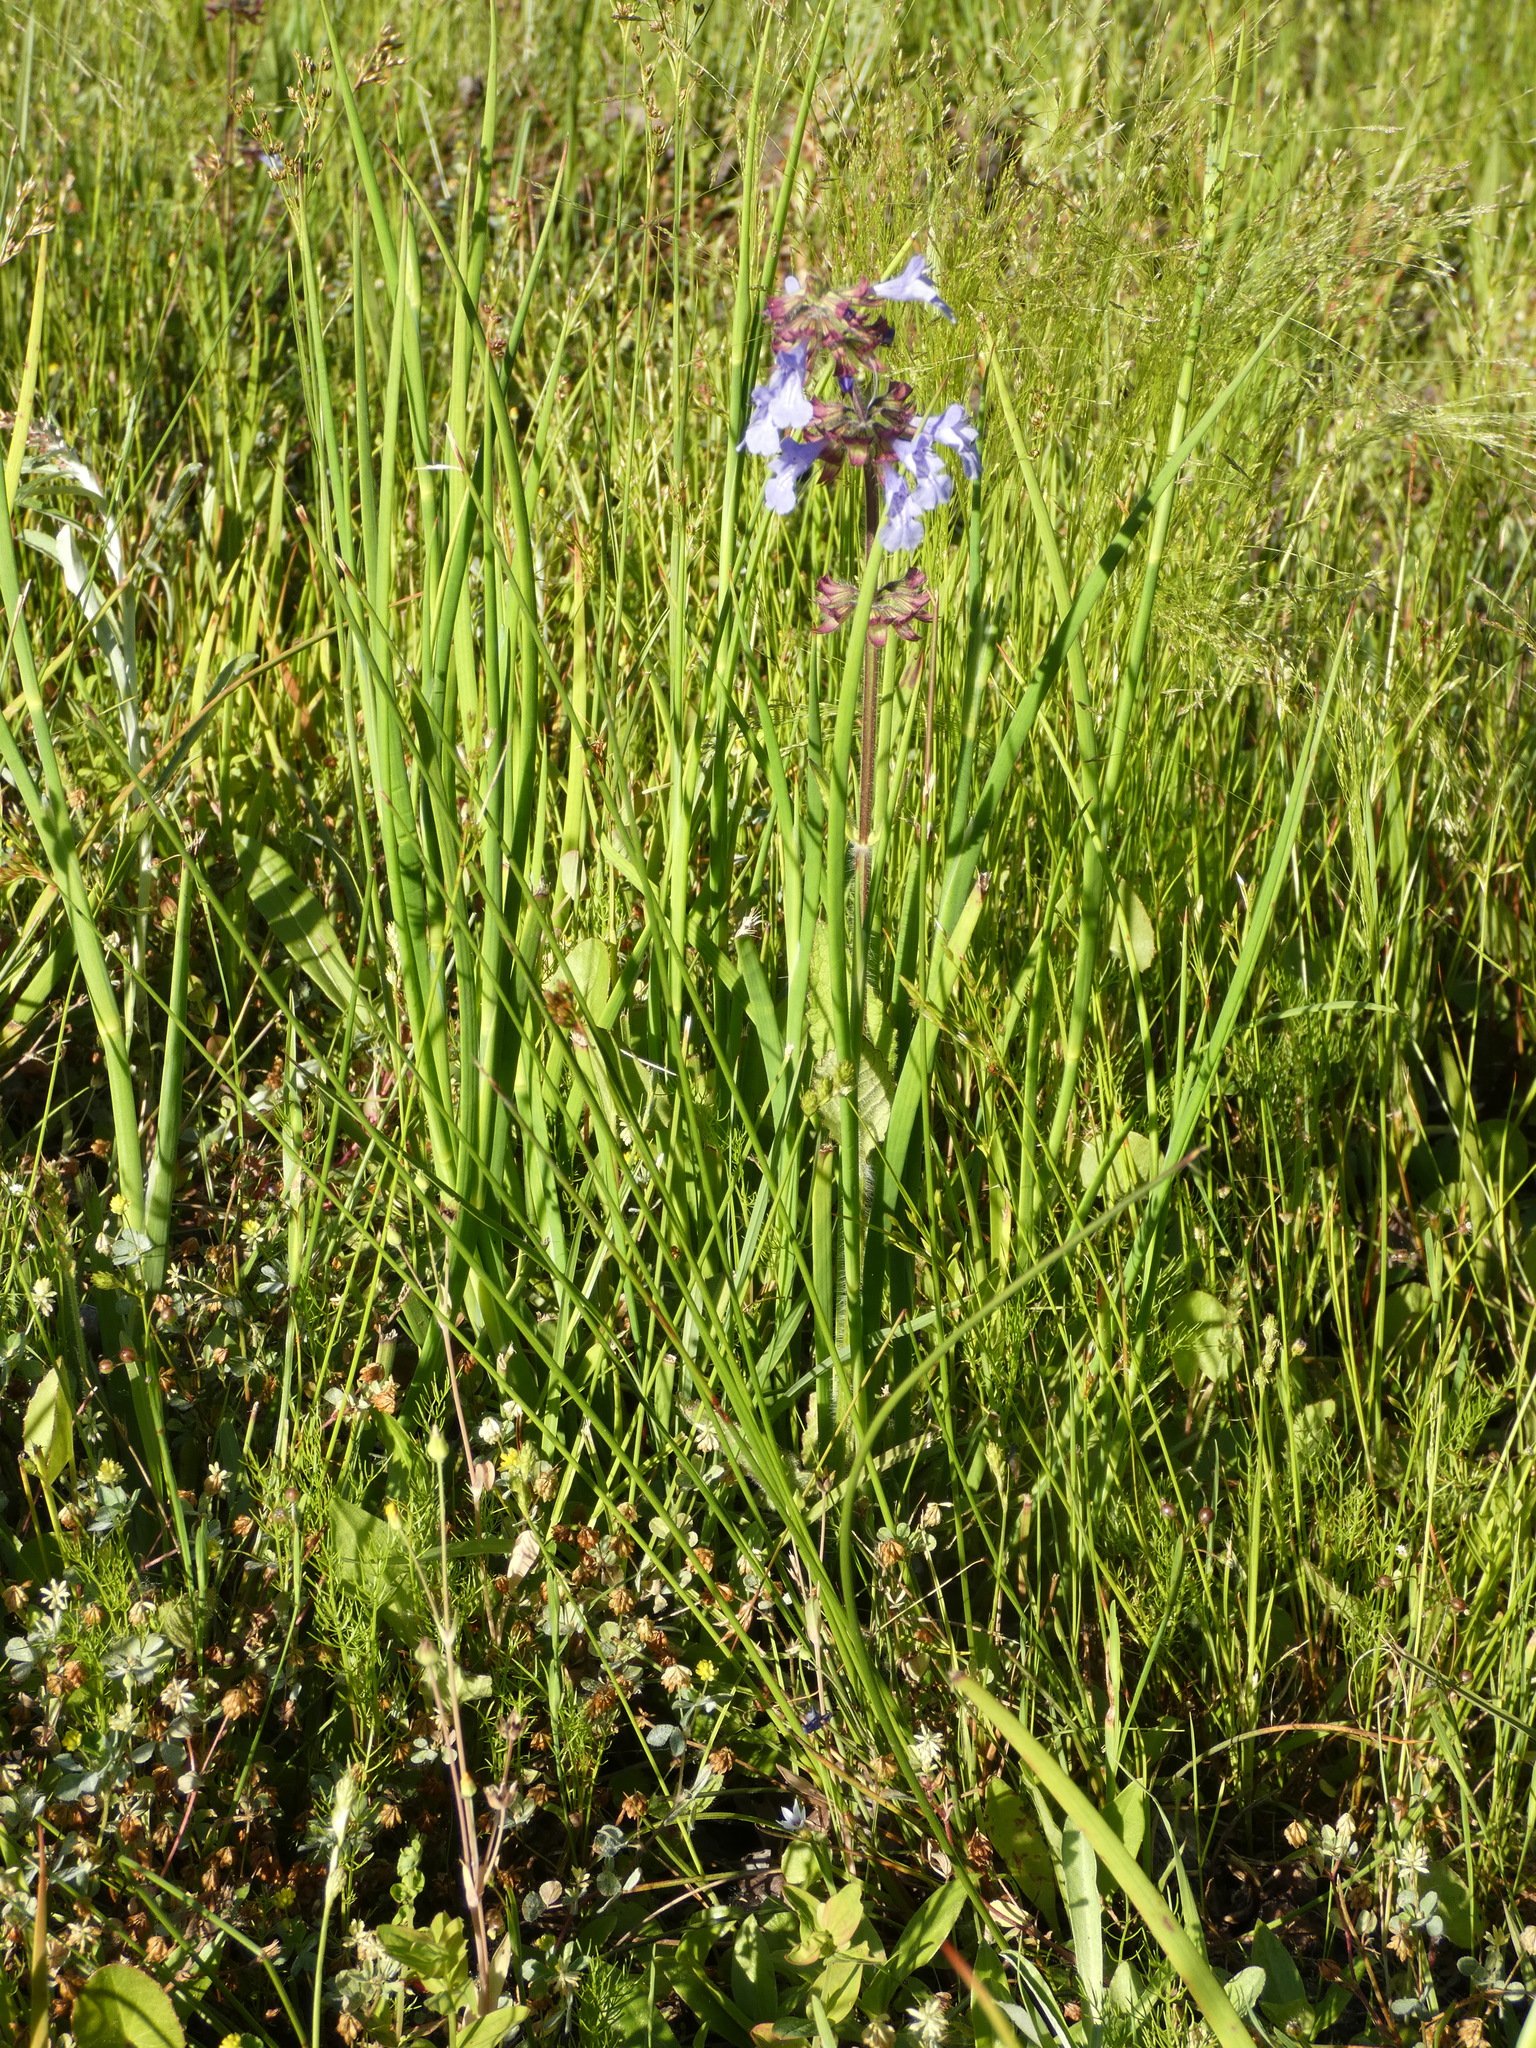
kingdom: Plantae
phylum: Tracheophyta
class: Magnoliopsida
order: Lamiales
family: Lamiaceae
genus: Salvia
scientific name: Salvia lyrata
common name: Cancerweed
